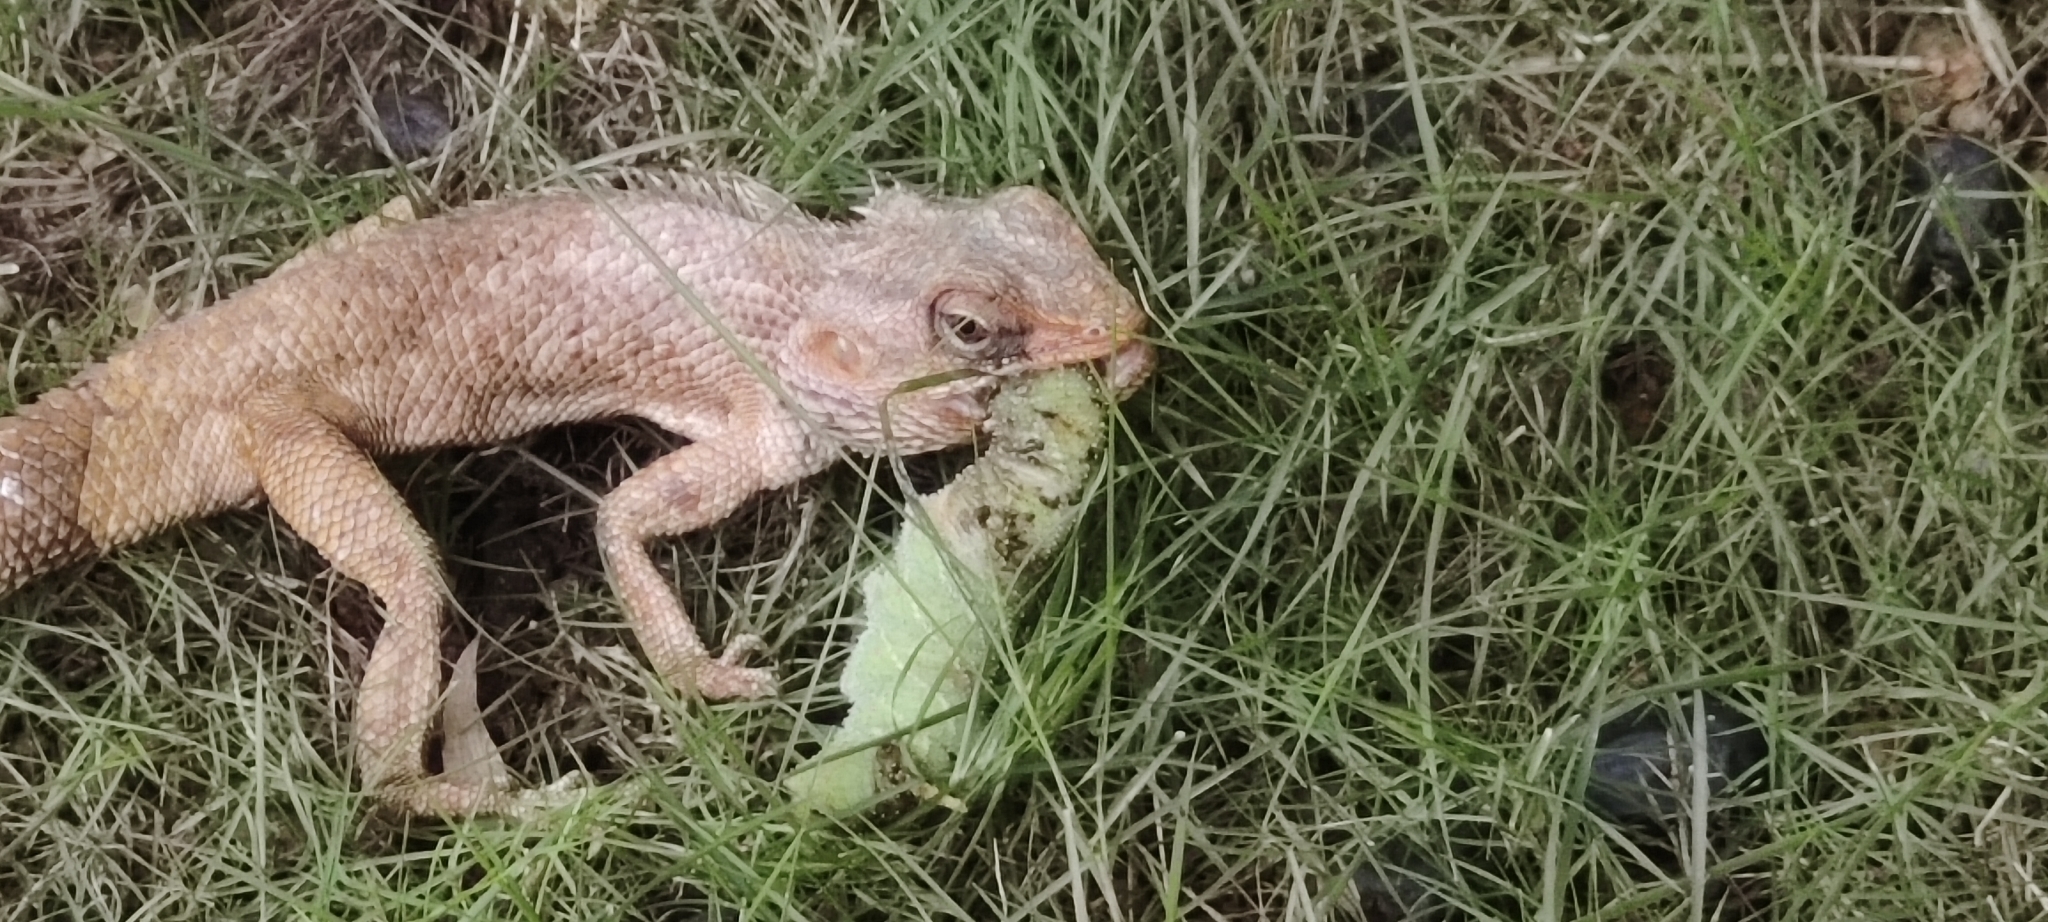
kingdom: Animalia
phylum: Arthropoda
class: Insecta
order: Lepidoptera
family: Sphingidae
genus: Daphnis
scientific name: Daphnis nerii
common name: Oleander hawk-moth
